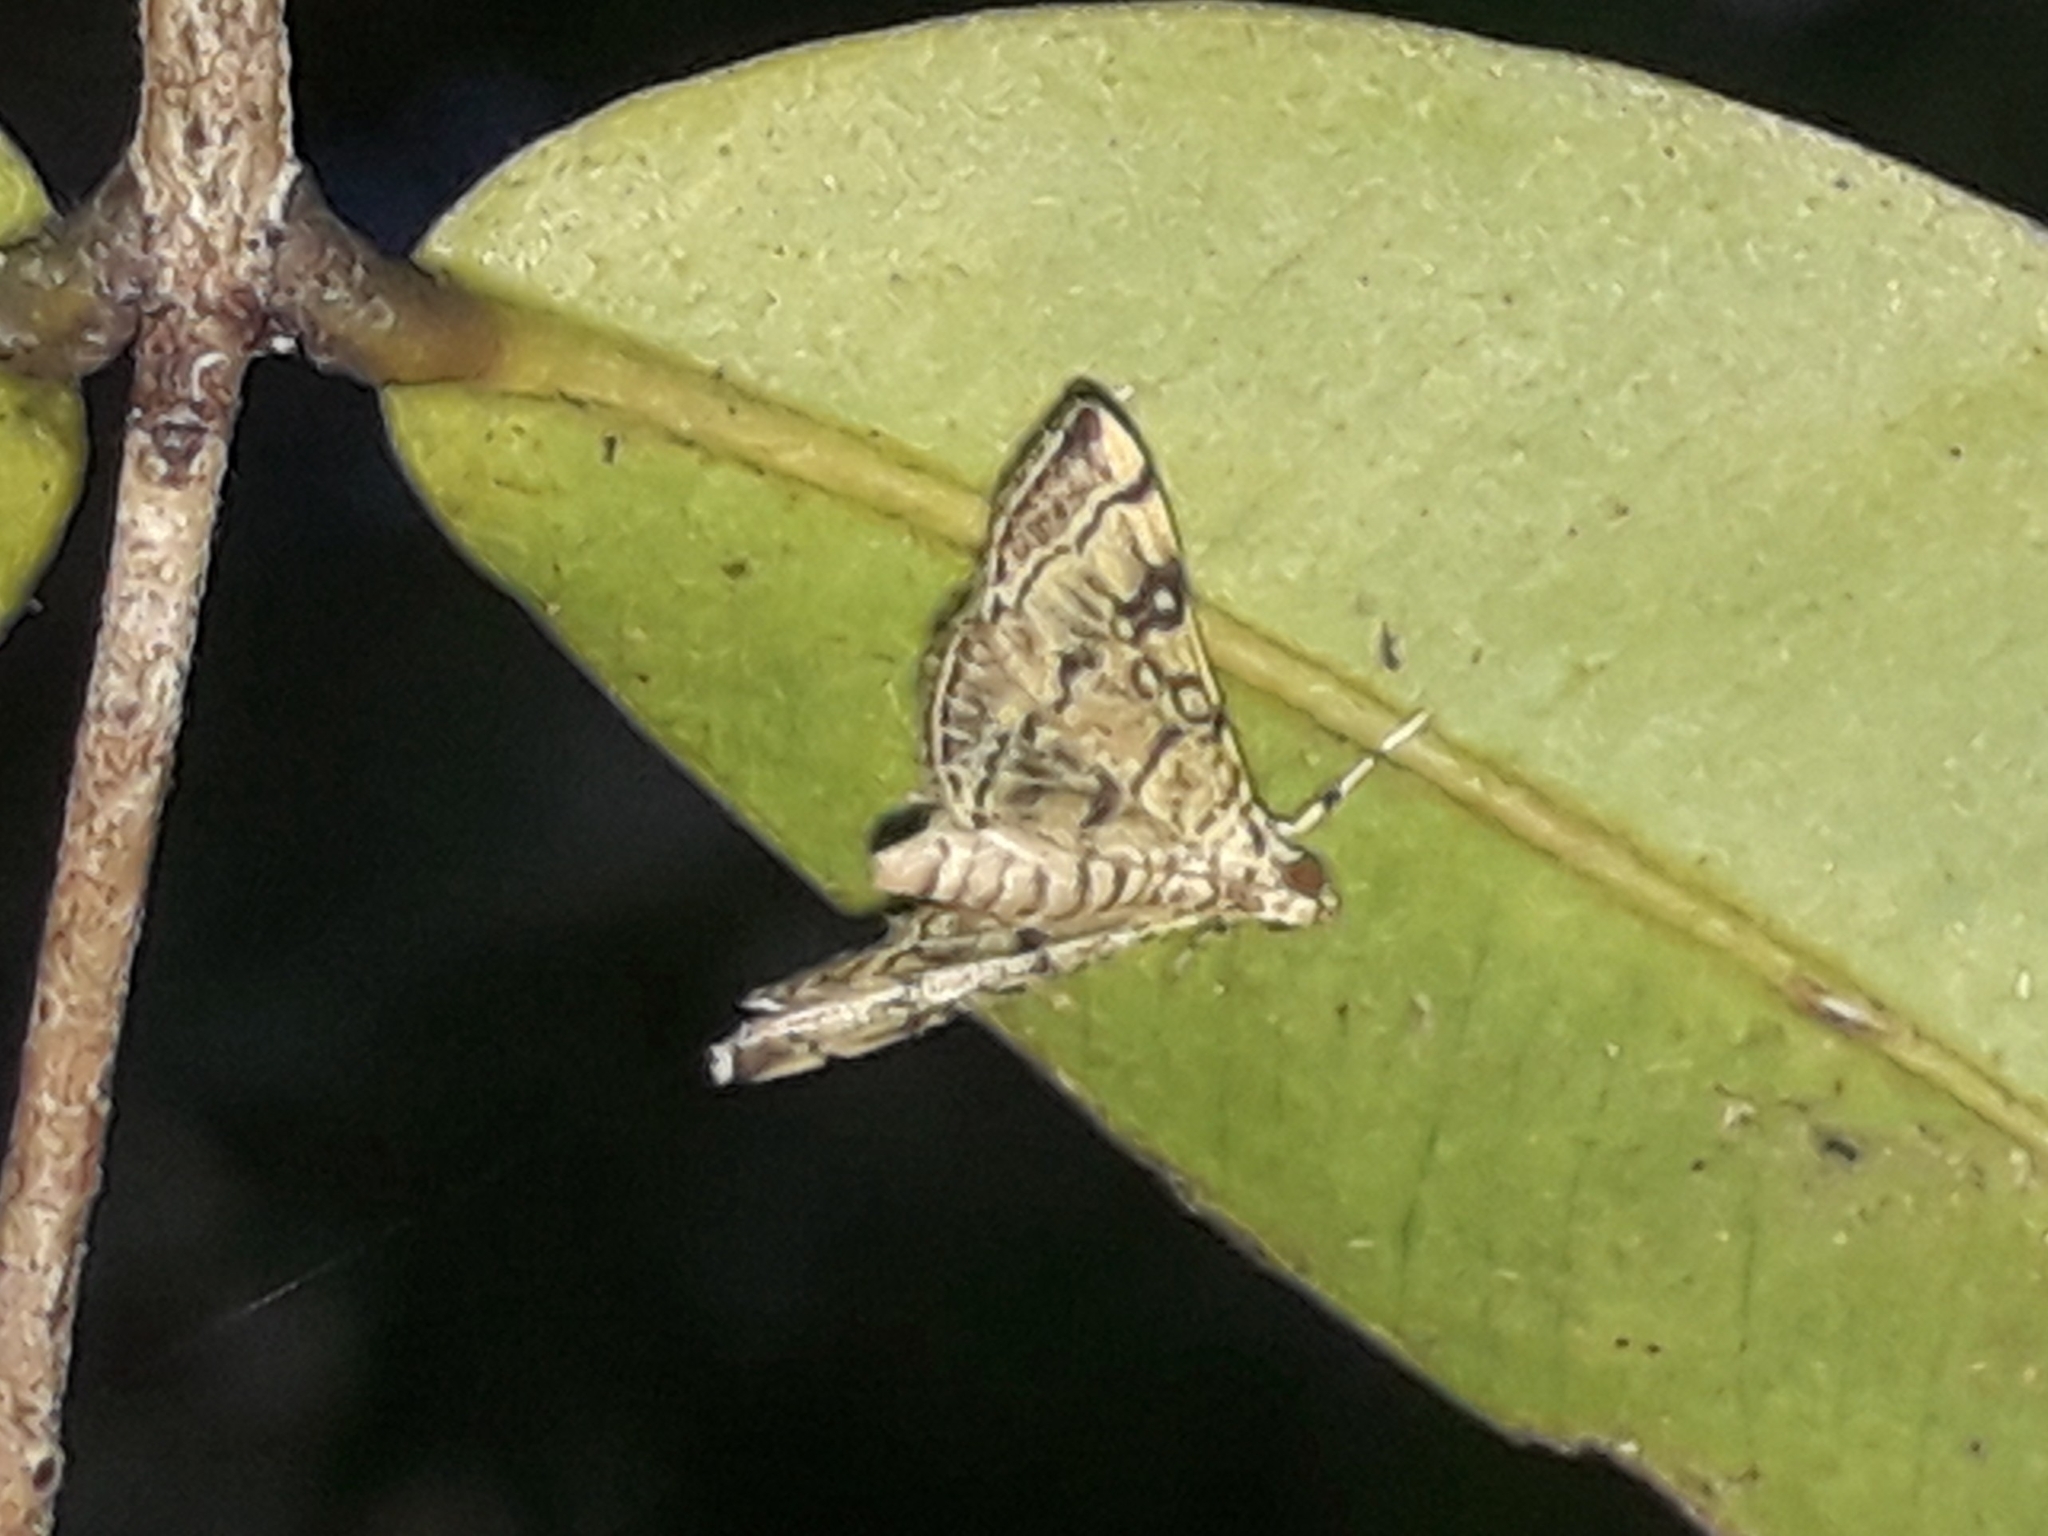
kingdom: Animalia
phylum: Arthropoda
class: Insecta
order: Lepidoptera
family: Crambidae
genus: Apogeshna
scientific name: Apogeshna stenialis
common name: Checkered apogeshna moth
